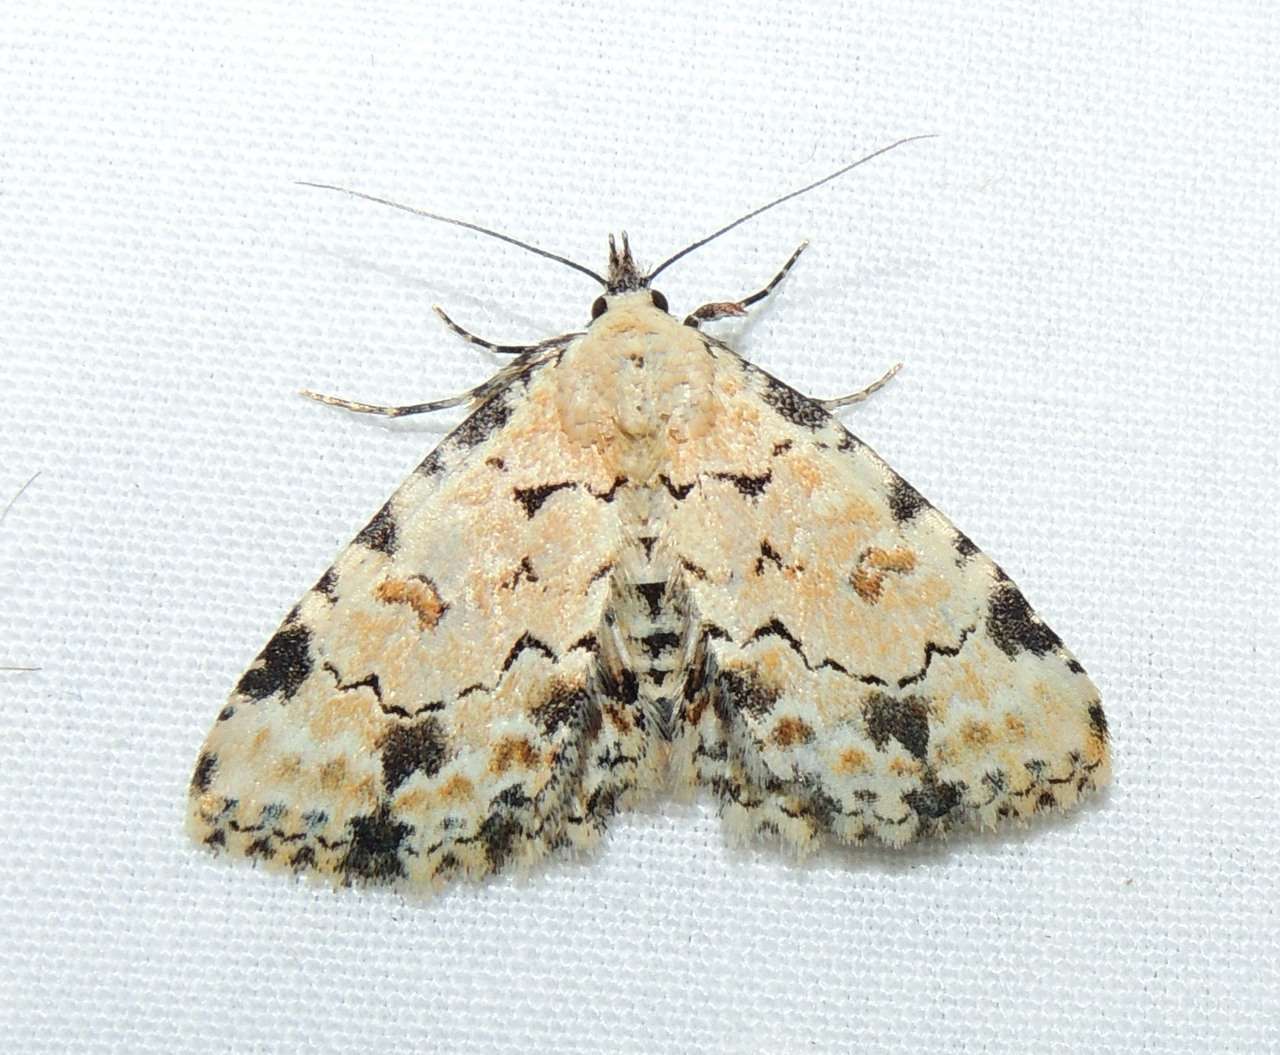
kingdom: Animalia
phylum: Arthropoda
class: Insecta
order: Lepidoptera
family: Erebidae
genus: Sandava
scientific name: Sandava scitisignata
